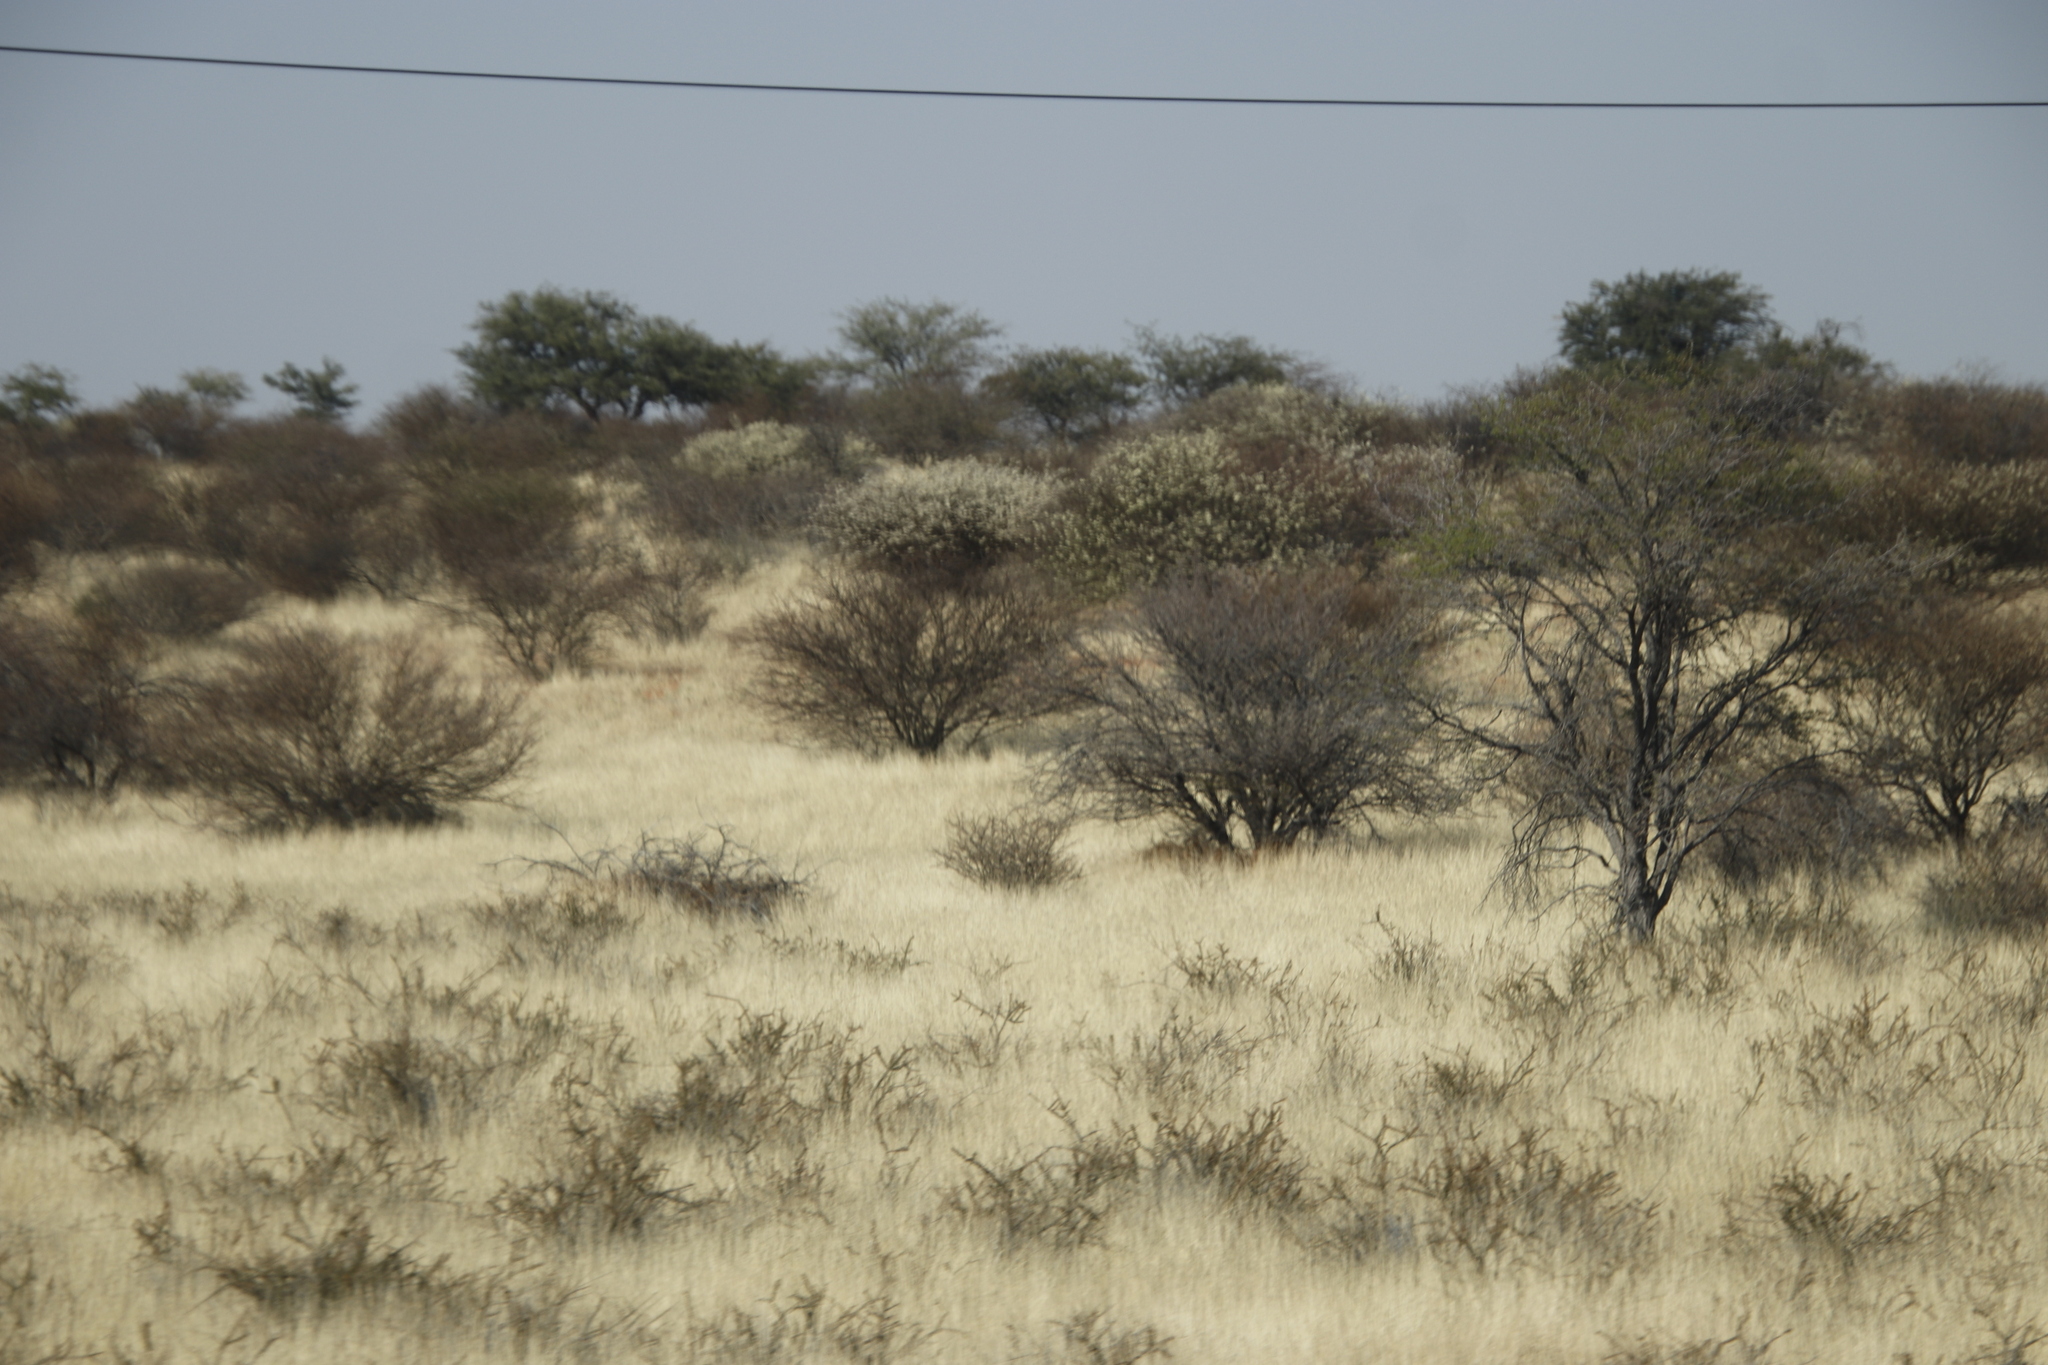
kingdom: Plantae
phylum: Tracheophyta
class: Magnoliopsida
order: Fabales
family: Fabaceae
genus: Senegalia
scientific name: Senegalia mellifera
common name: Hookthorn
